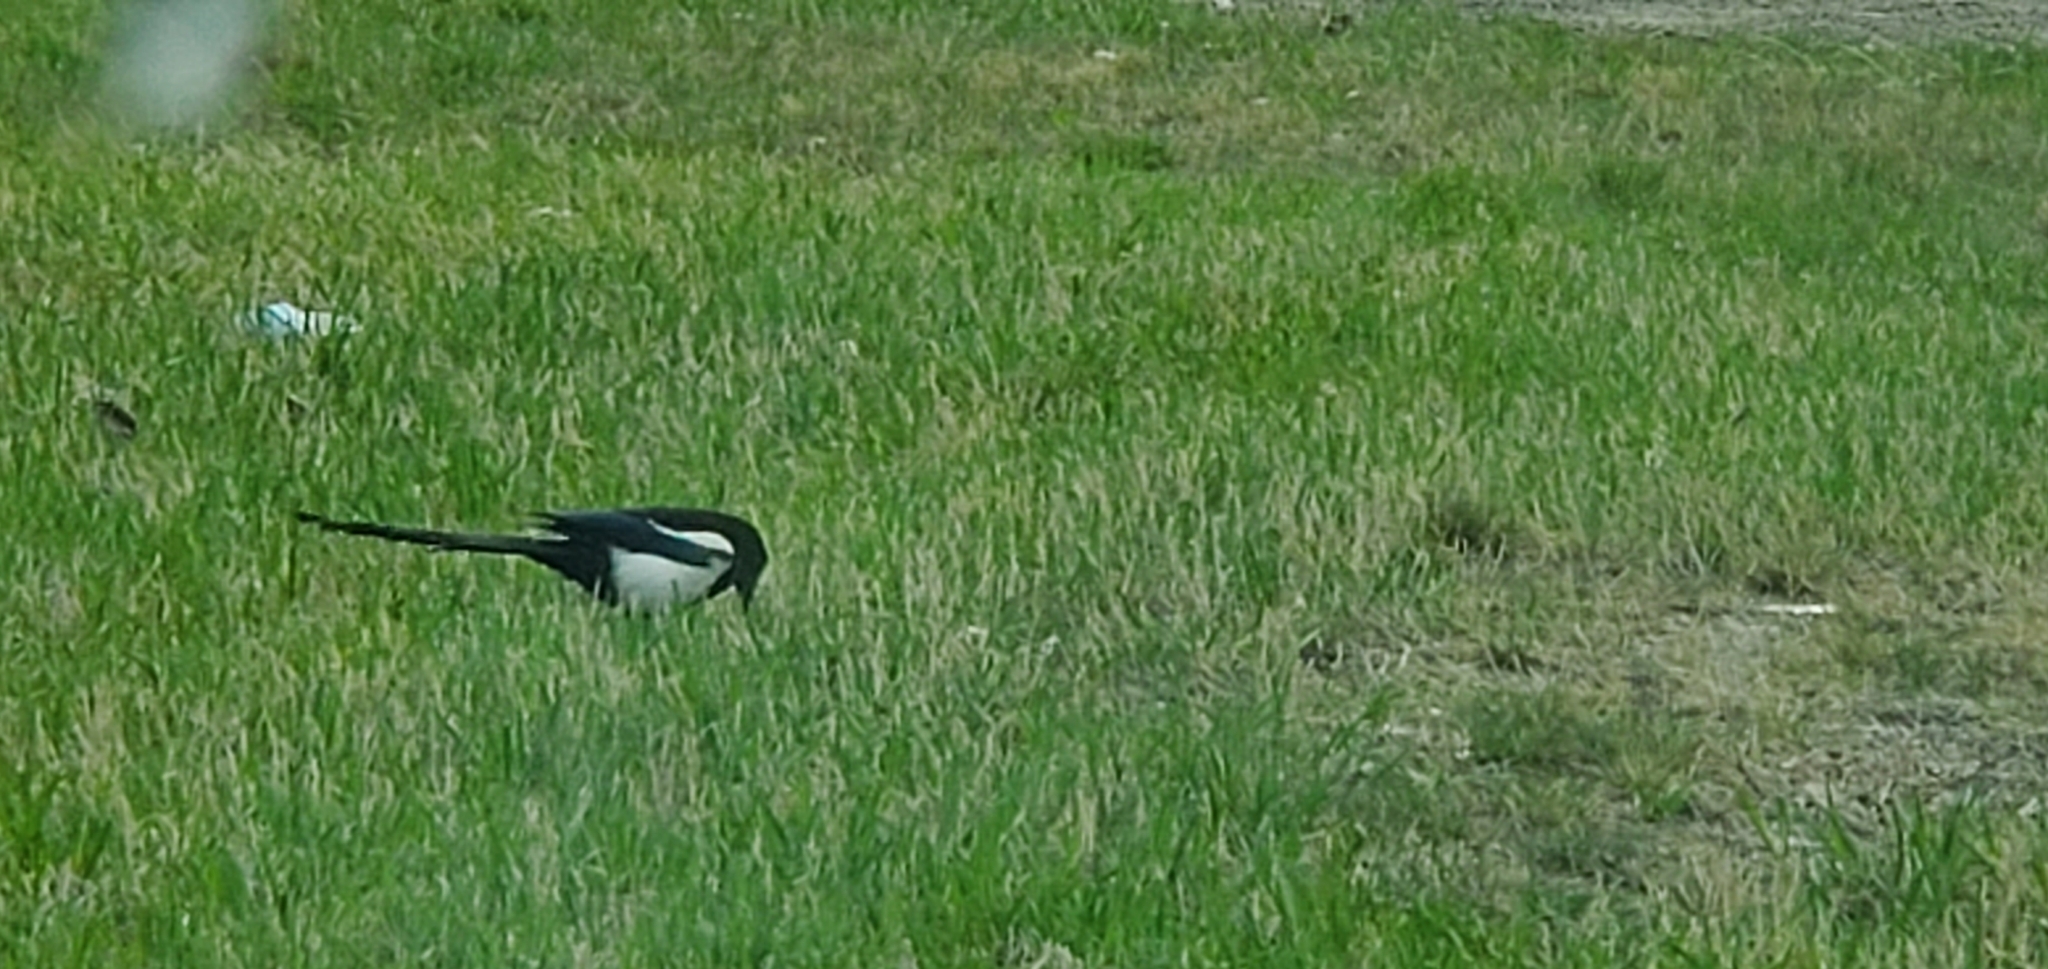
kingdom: Animalia
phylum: Chordata
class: Aves
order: Passeriformes
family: Corvidae
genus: Pica
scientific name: Pica hudsonia
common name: Black-billed magpie
